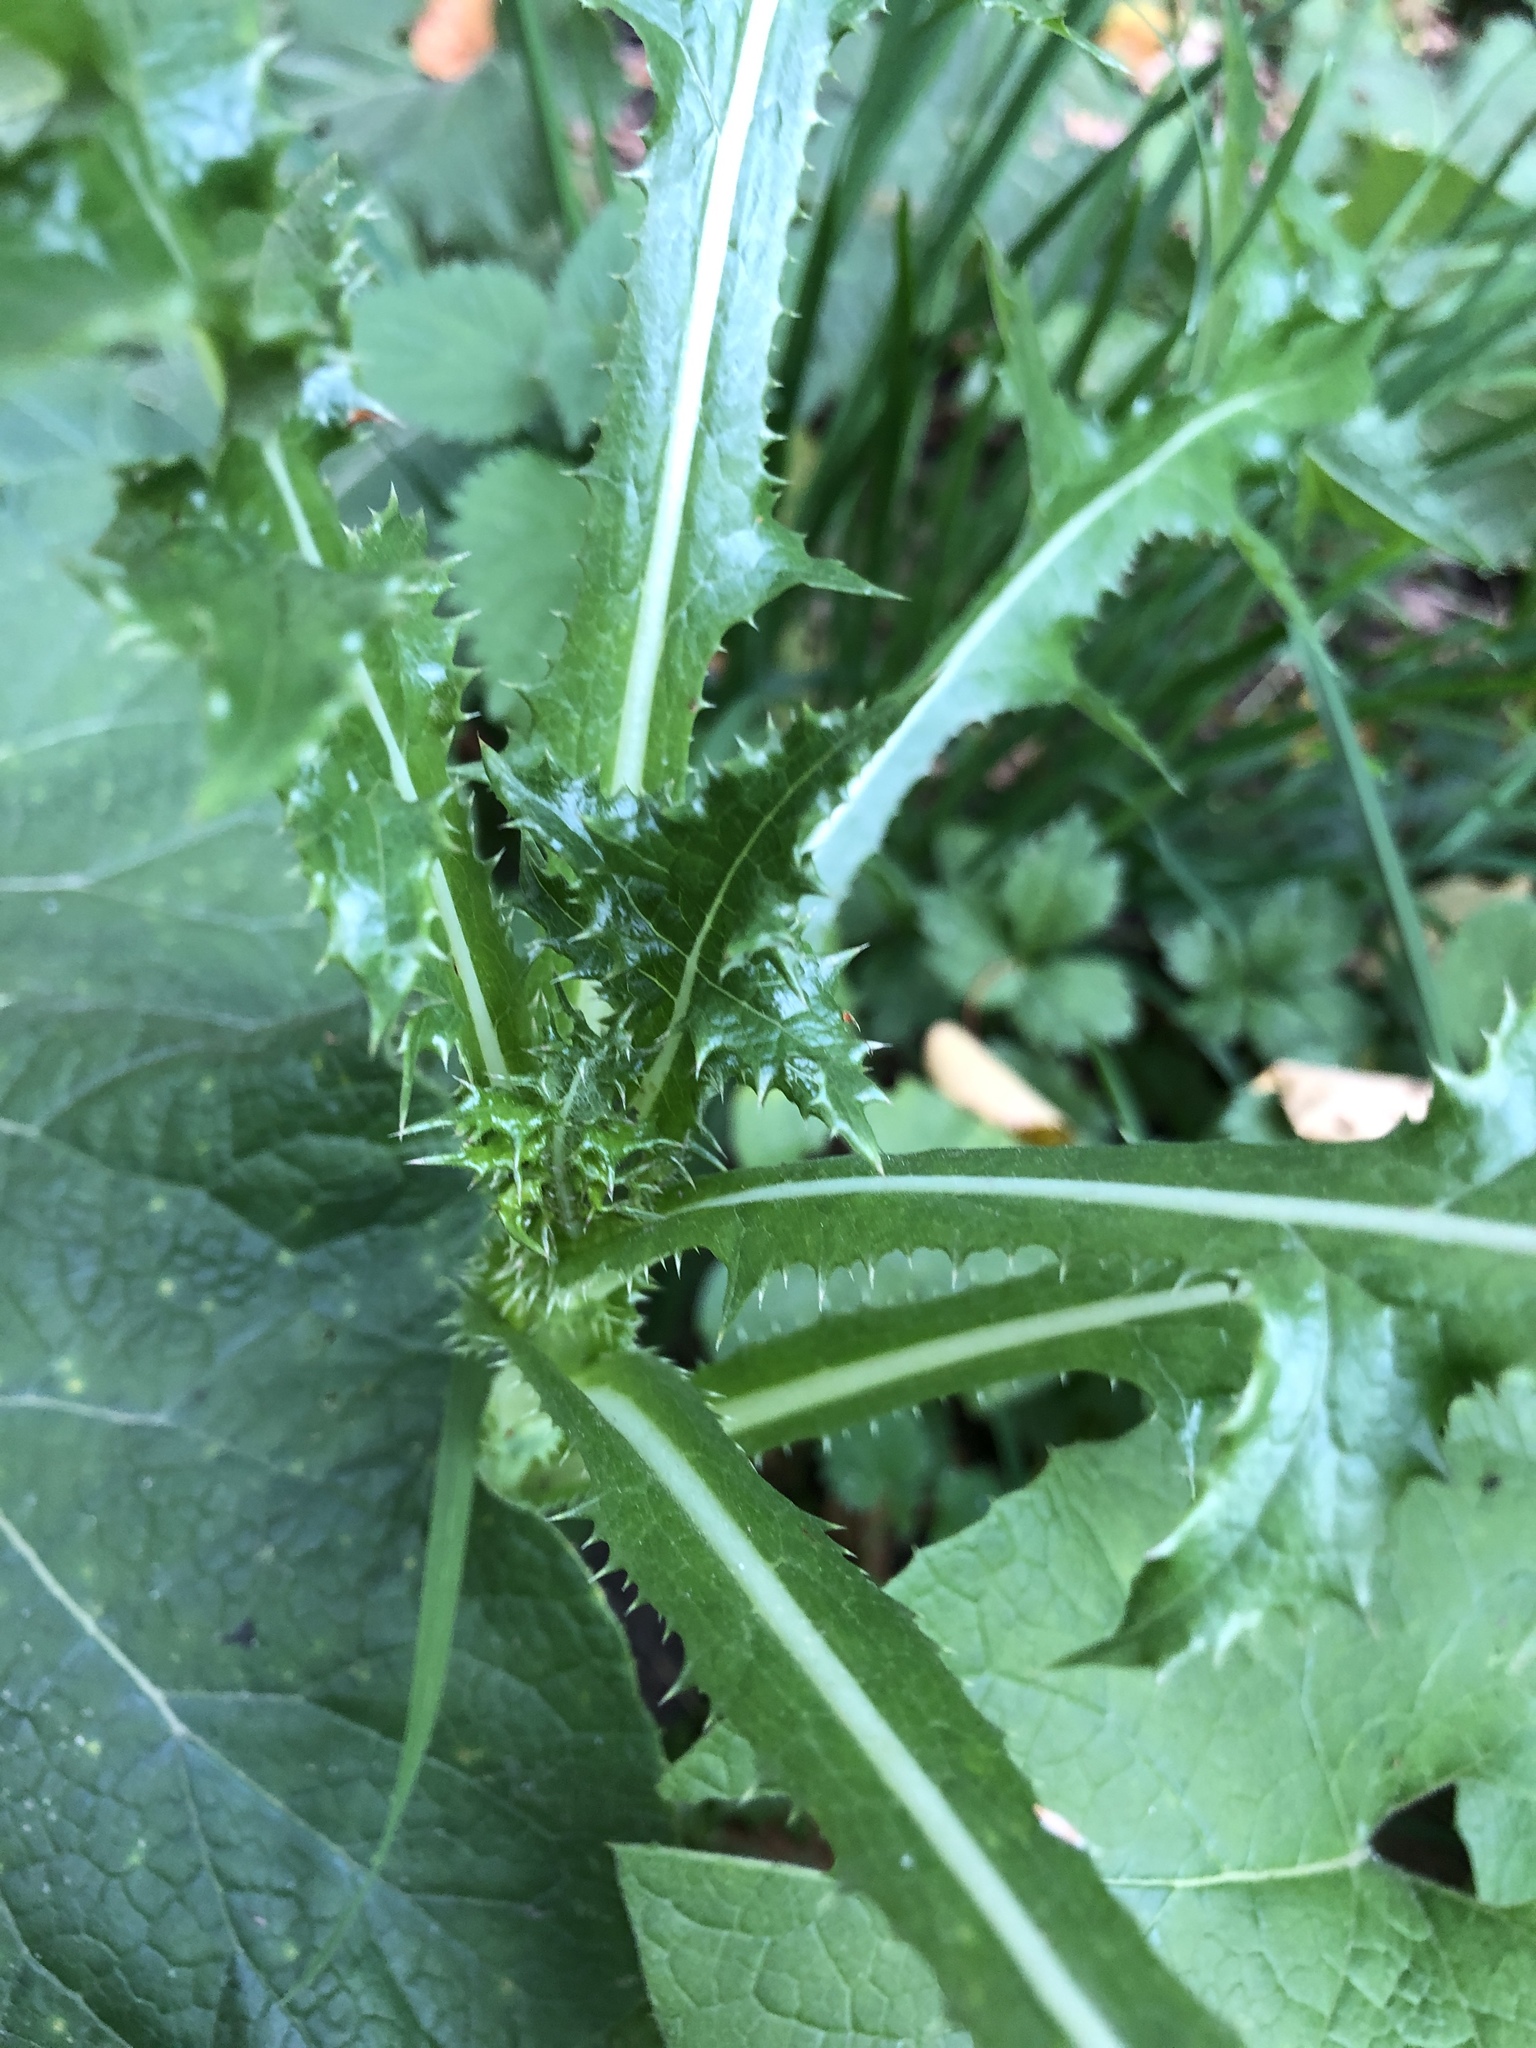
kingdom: Plantae
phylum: Tracheophyta
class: Magnoliopsida
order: Asterales
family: Asteraceae
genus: Sonchus
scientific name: Sonchus asper
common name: Prickly sow-thistle
